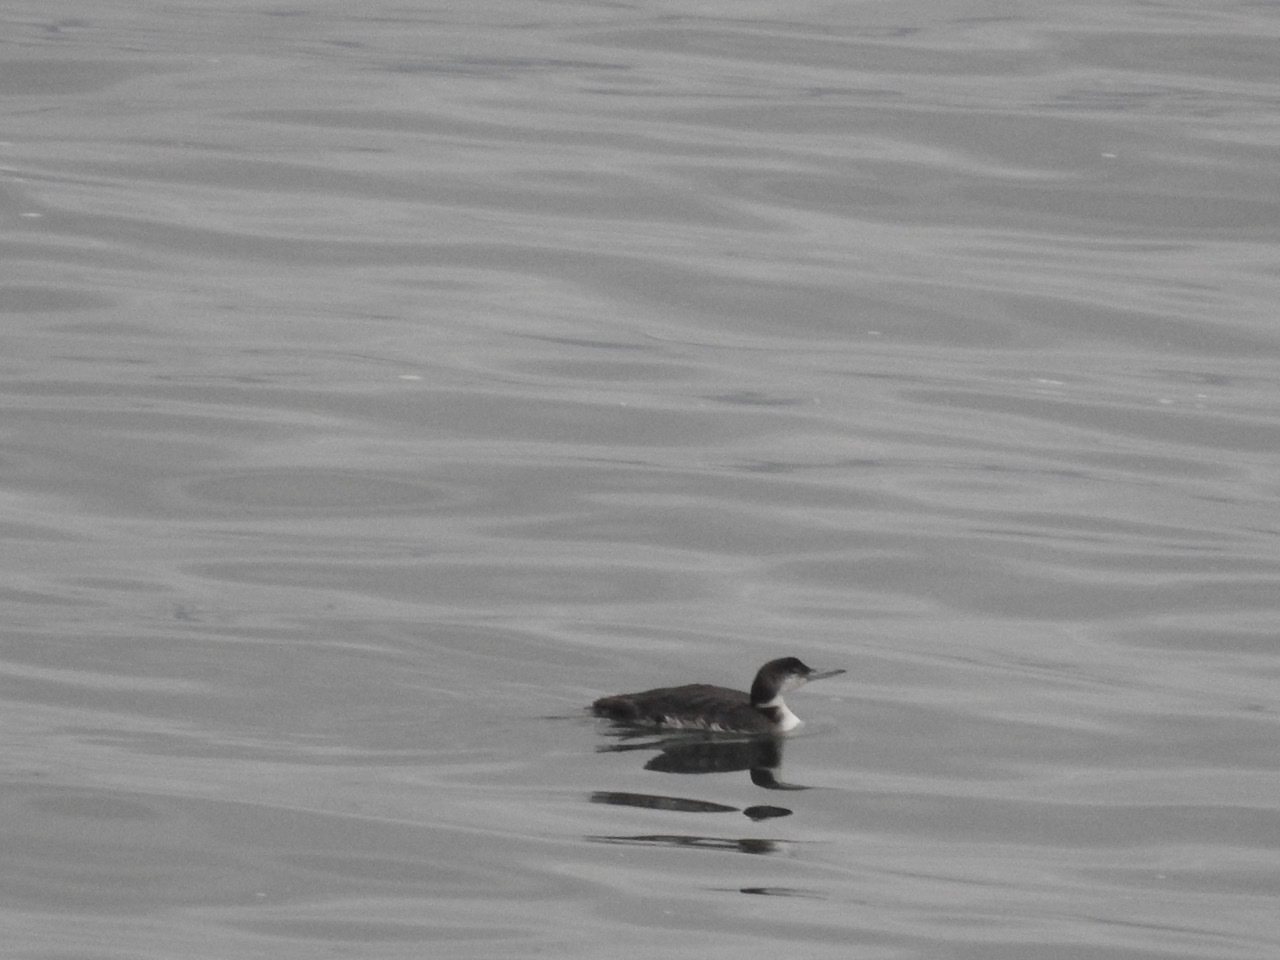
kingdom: Animalia
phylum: Chordata
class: Aves
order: Gaviiformes
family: Gaviidae
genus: Gavia
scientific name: Gavia immer
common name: Common loon
